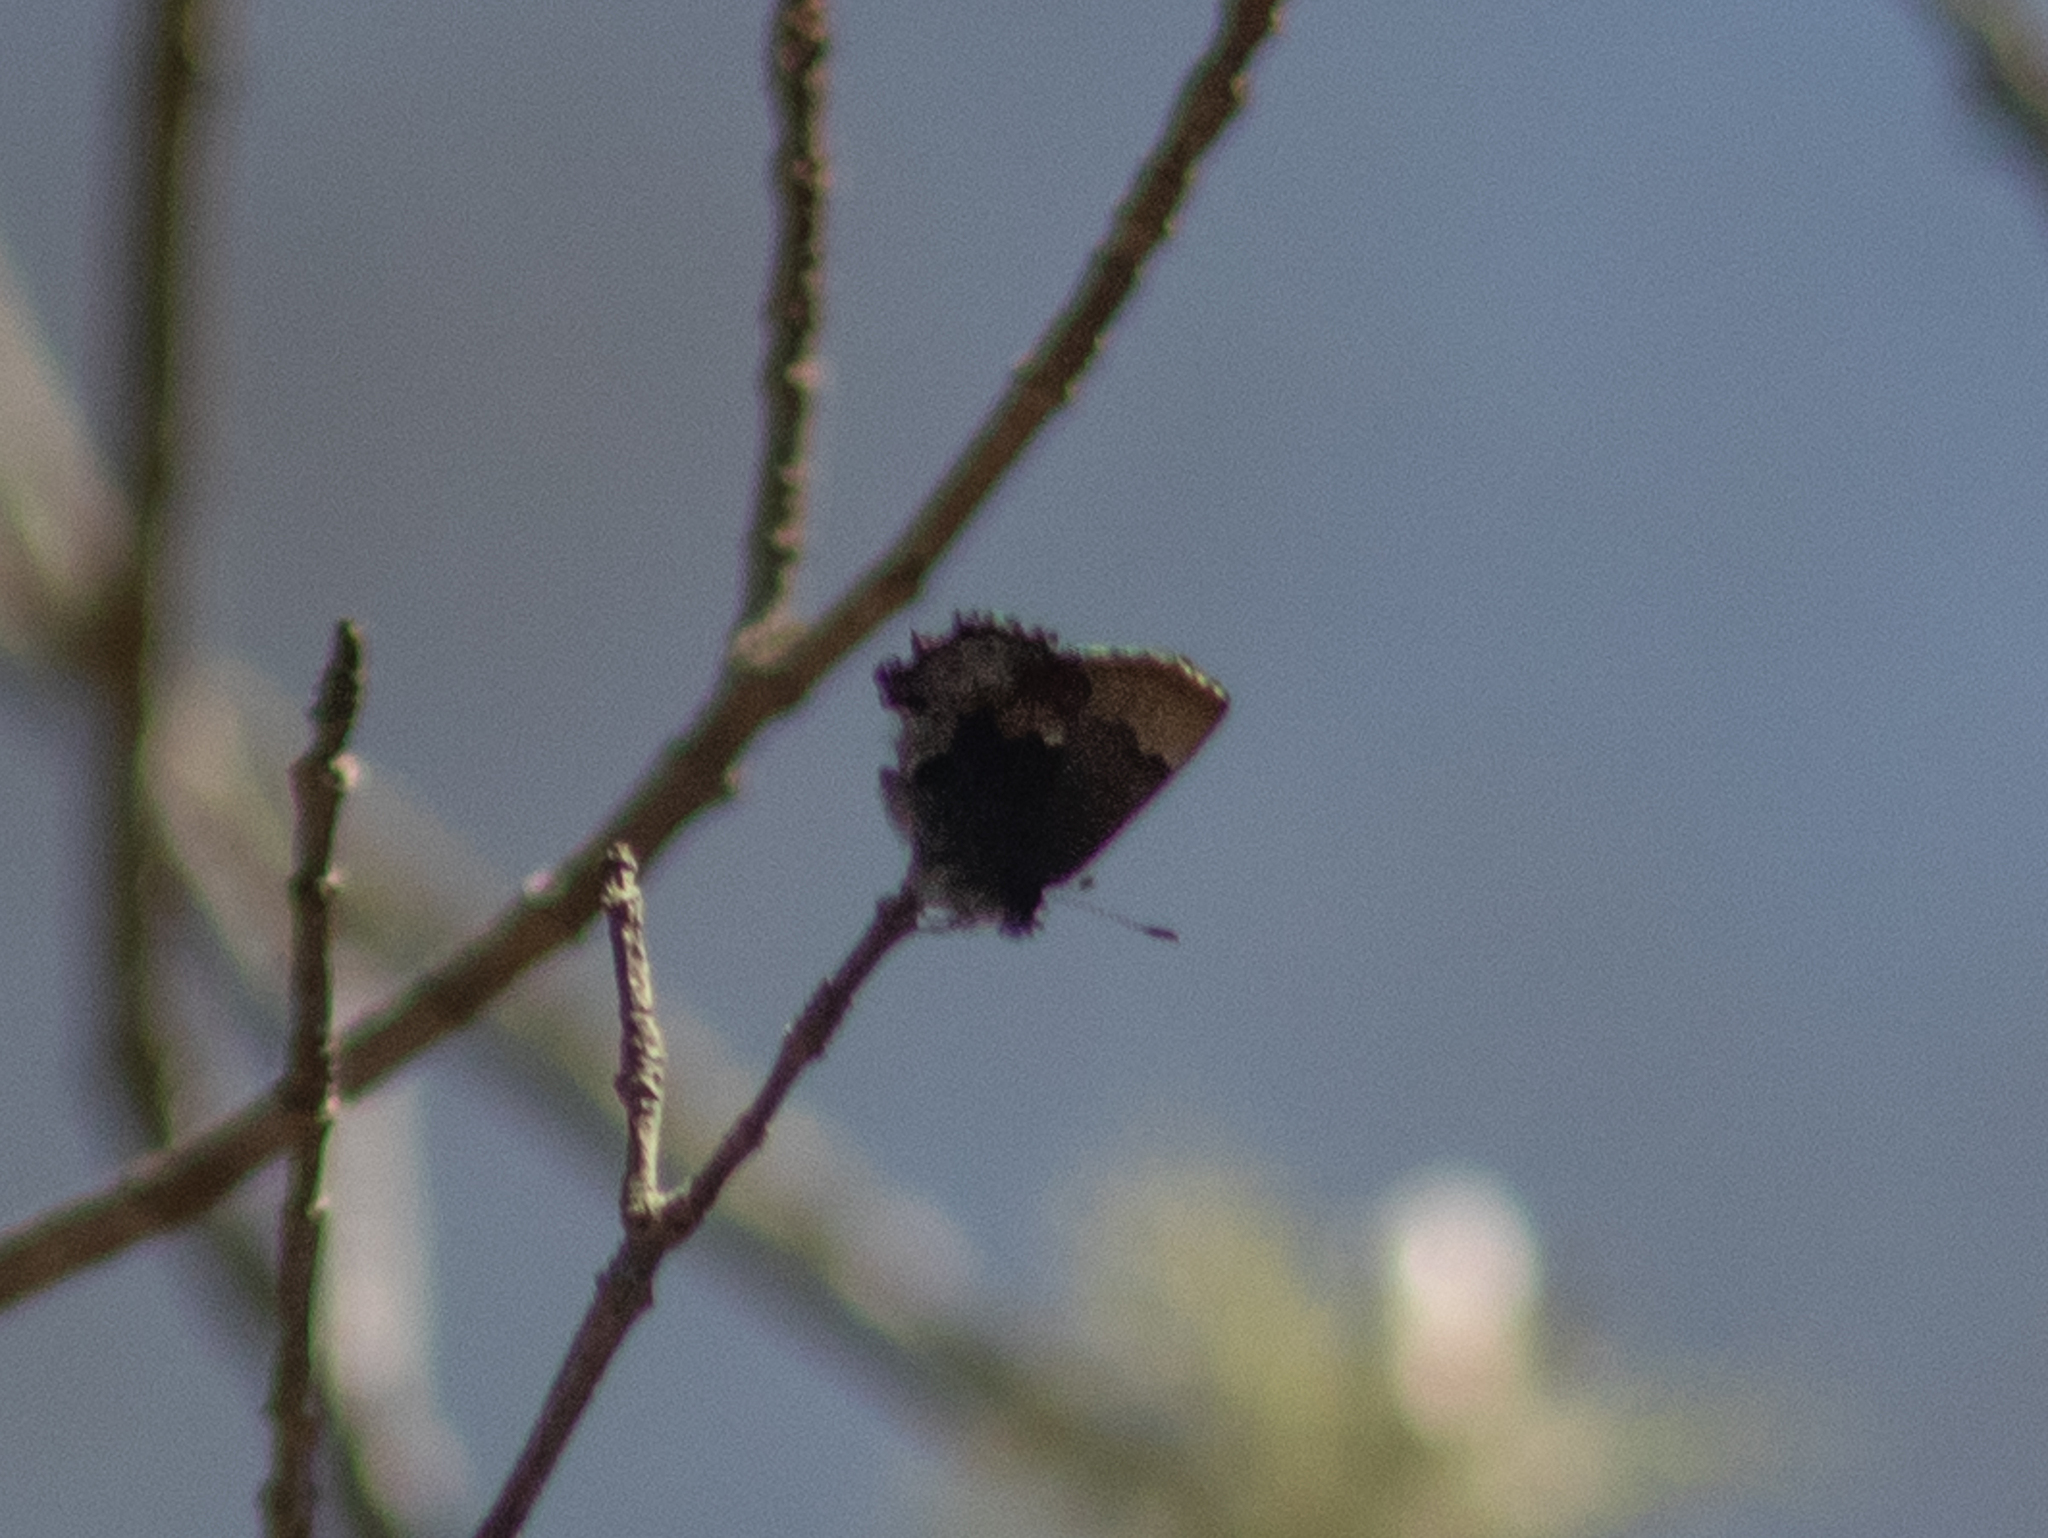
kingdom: Animalia
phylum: Arthropoda
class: Insecta
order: Lepidoptera
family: Lycaenidae
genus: Incisalia
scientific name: Incisalia henrici
